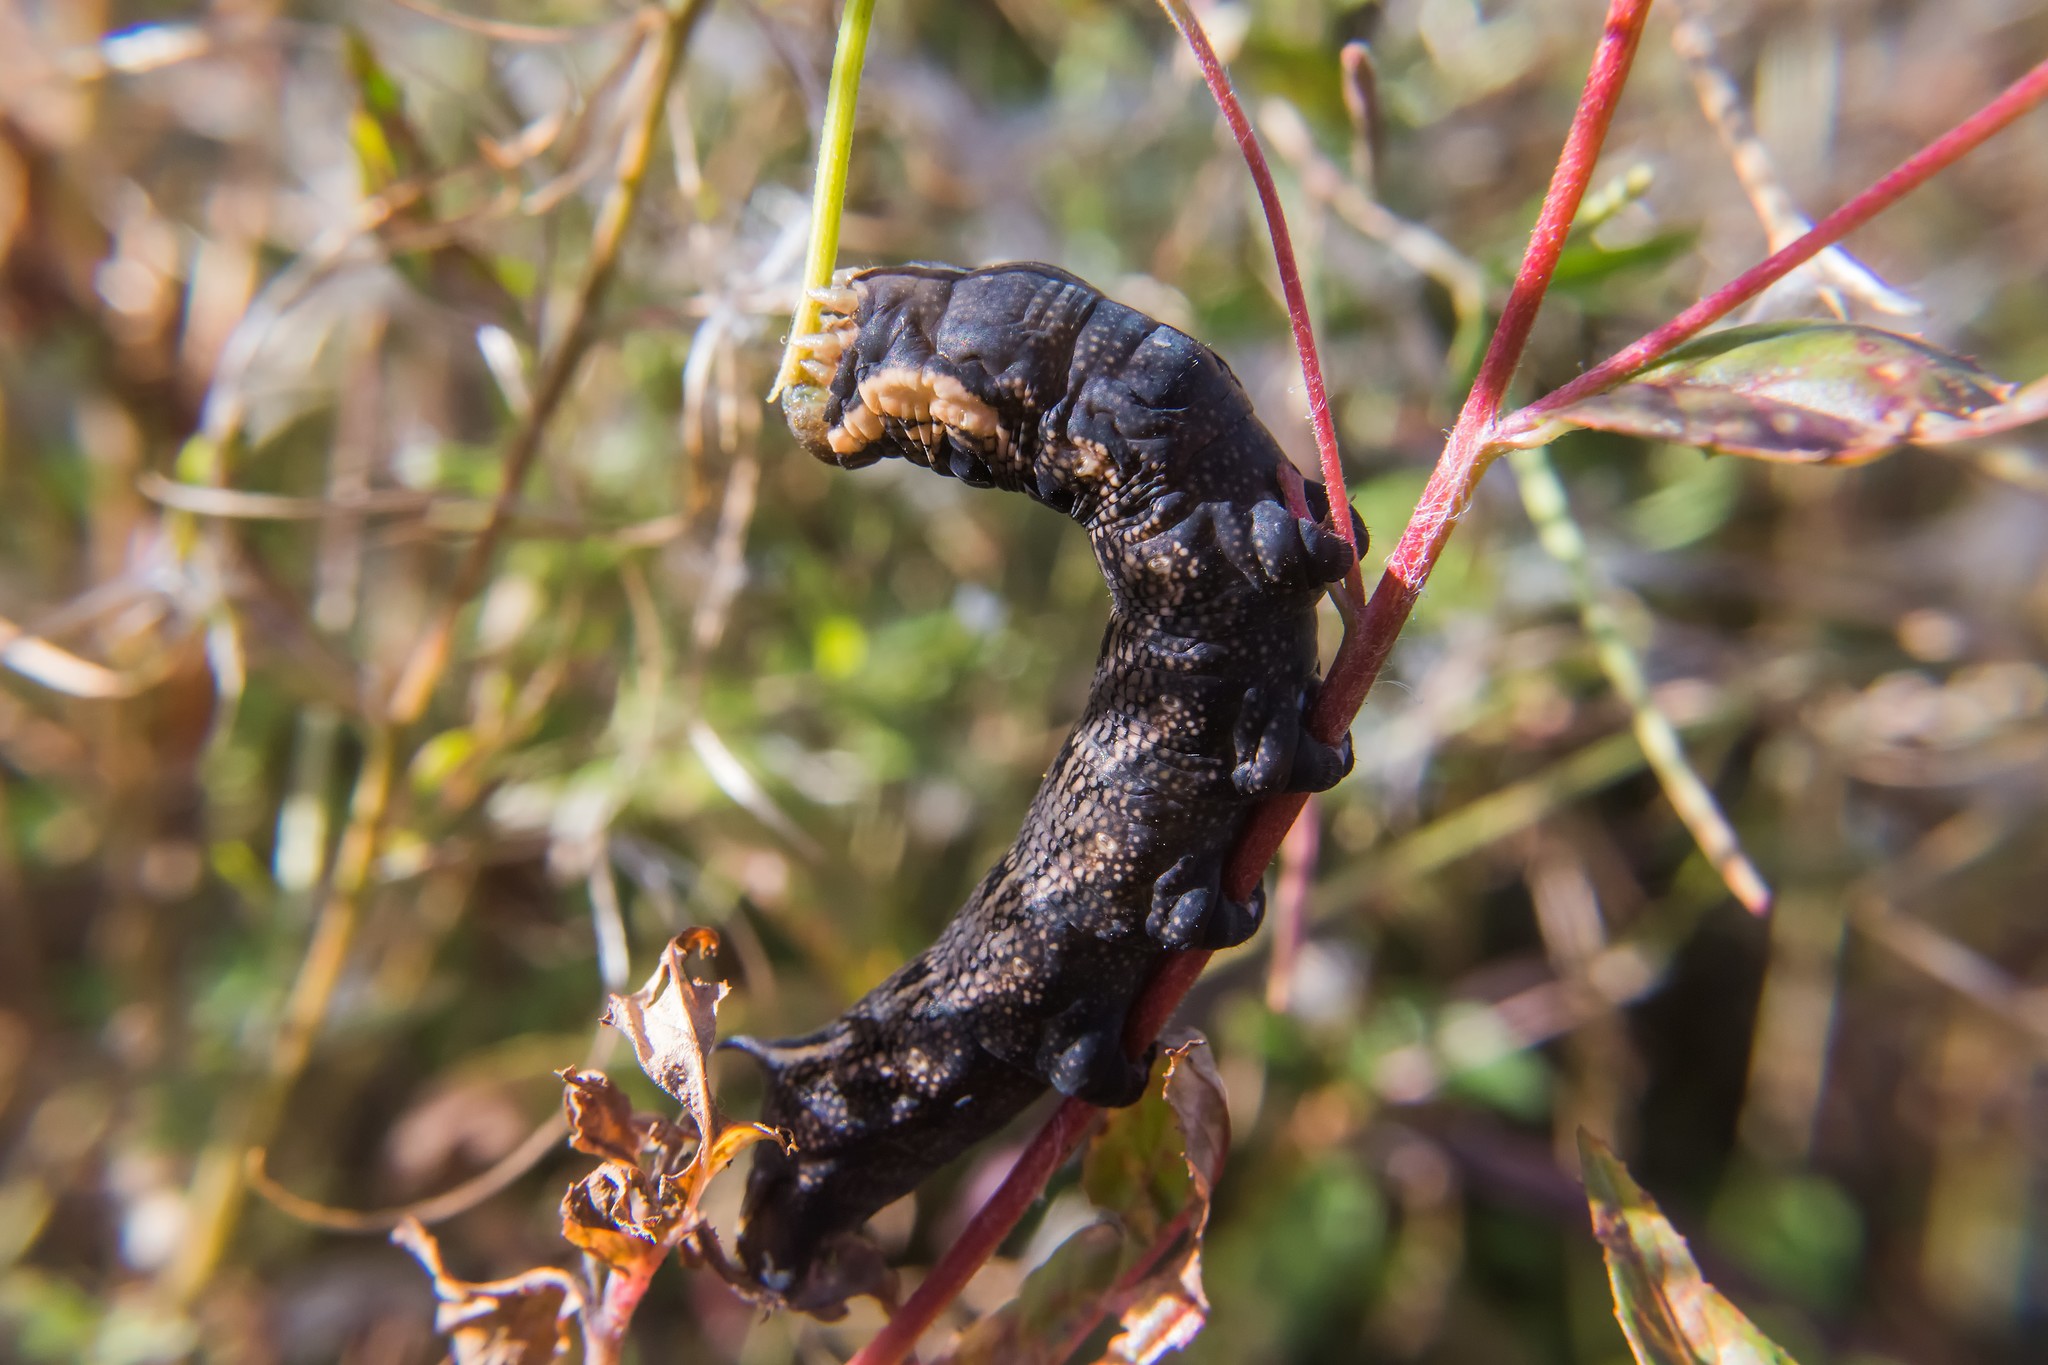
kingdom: Animalia
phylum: Arthropoda
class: Insecta
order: Lepidoptera
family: Sphingidae
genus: Deilephila
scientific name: Deilephila elpenor
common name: Elephant hawk-moth
